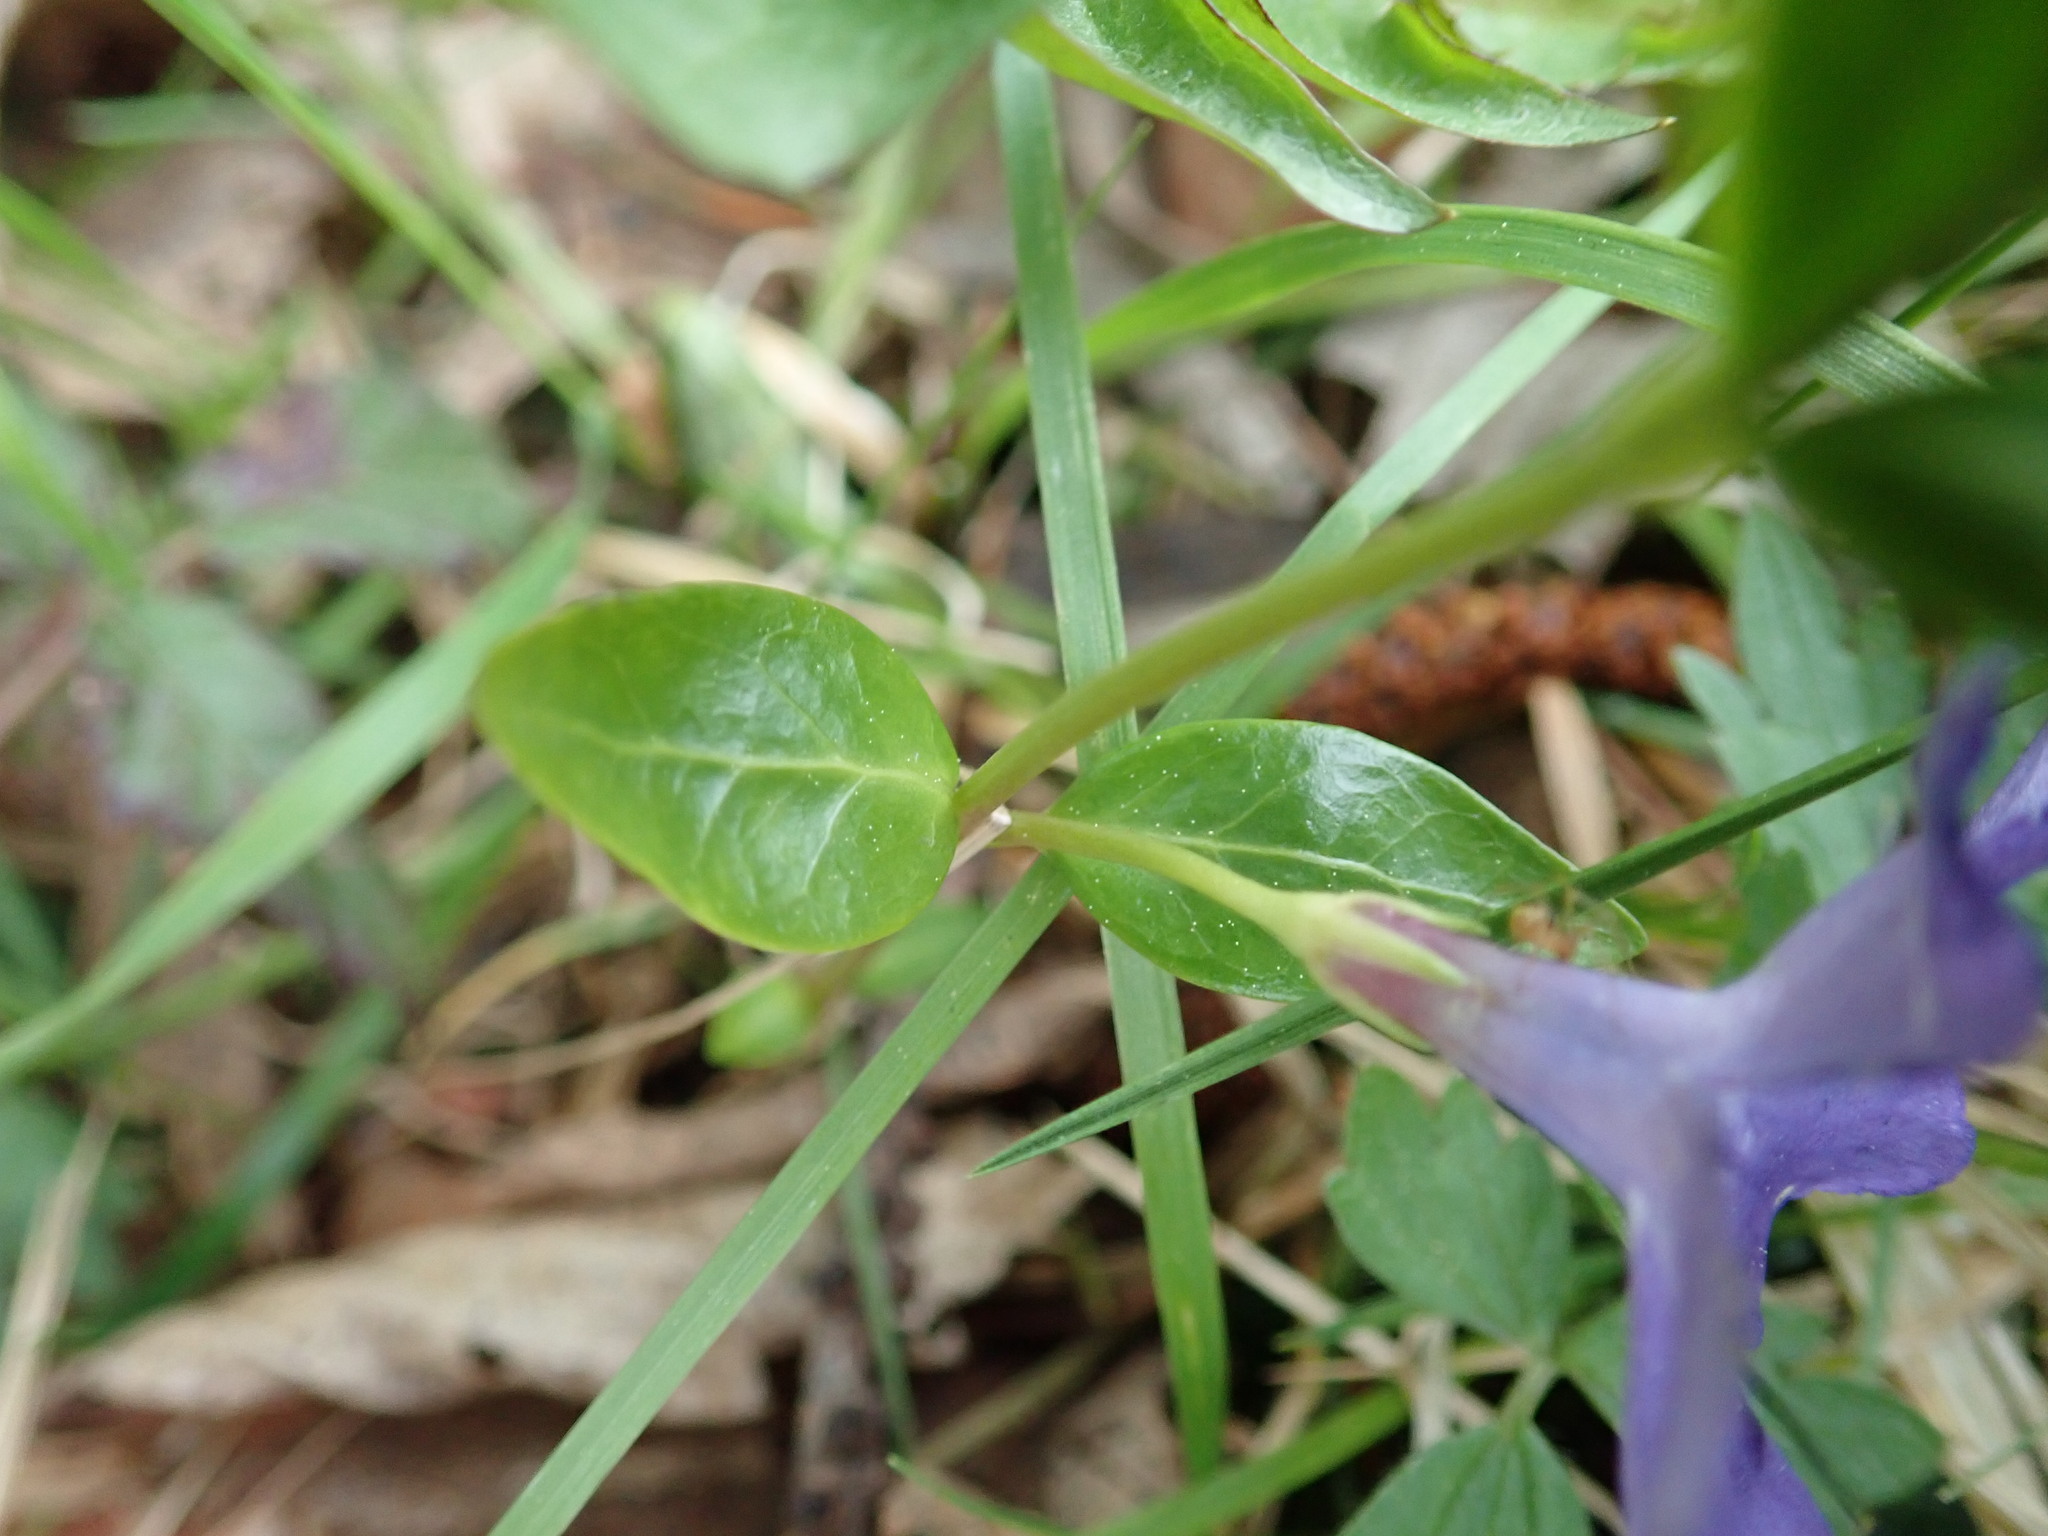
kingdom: Plantae
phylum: Tracheophyta
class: Magnoliopsida
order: Gentianales
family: Apocynaceae
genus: Vinca
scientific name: Vinca minor
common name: Lesser periwinkle
